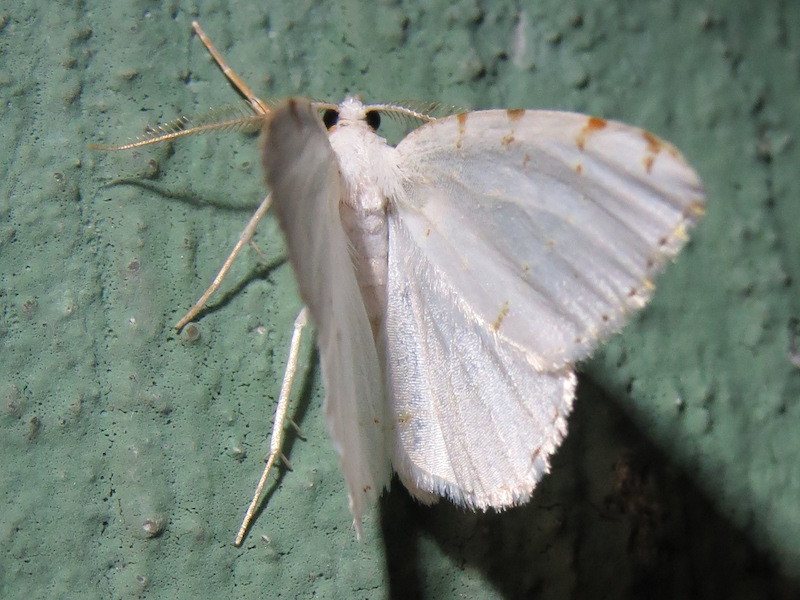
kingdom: Animalia
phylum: Arthropoda
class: Insecta
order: Lepidoptera
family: Geometridae
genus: Macaria
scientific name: Macaria pustularia
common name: Lesser maple spanworm moth
